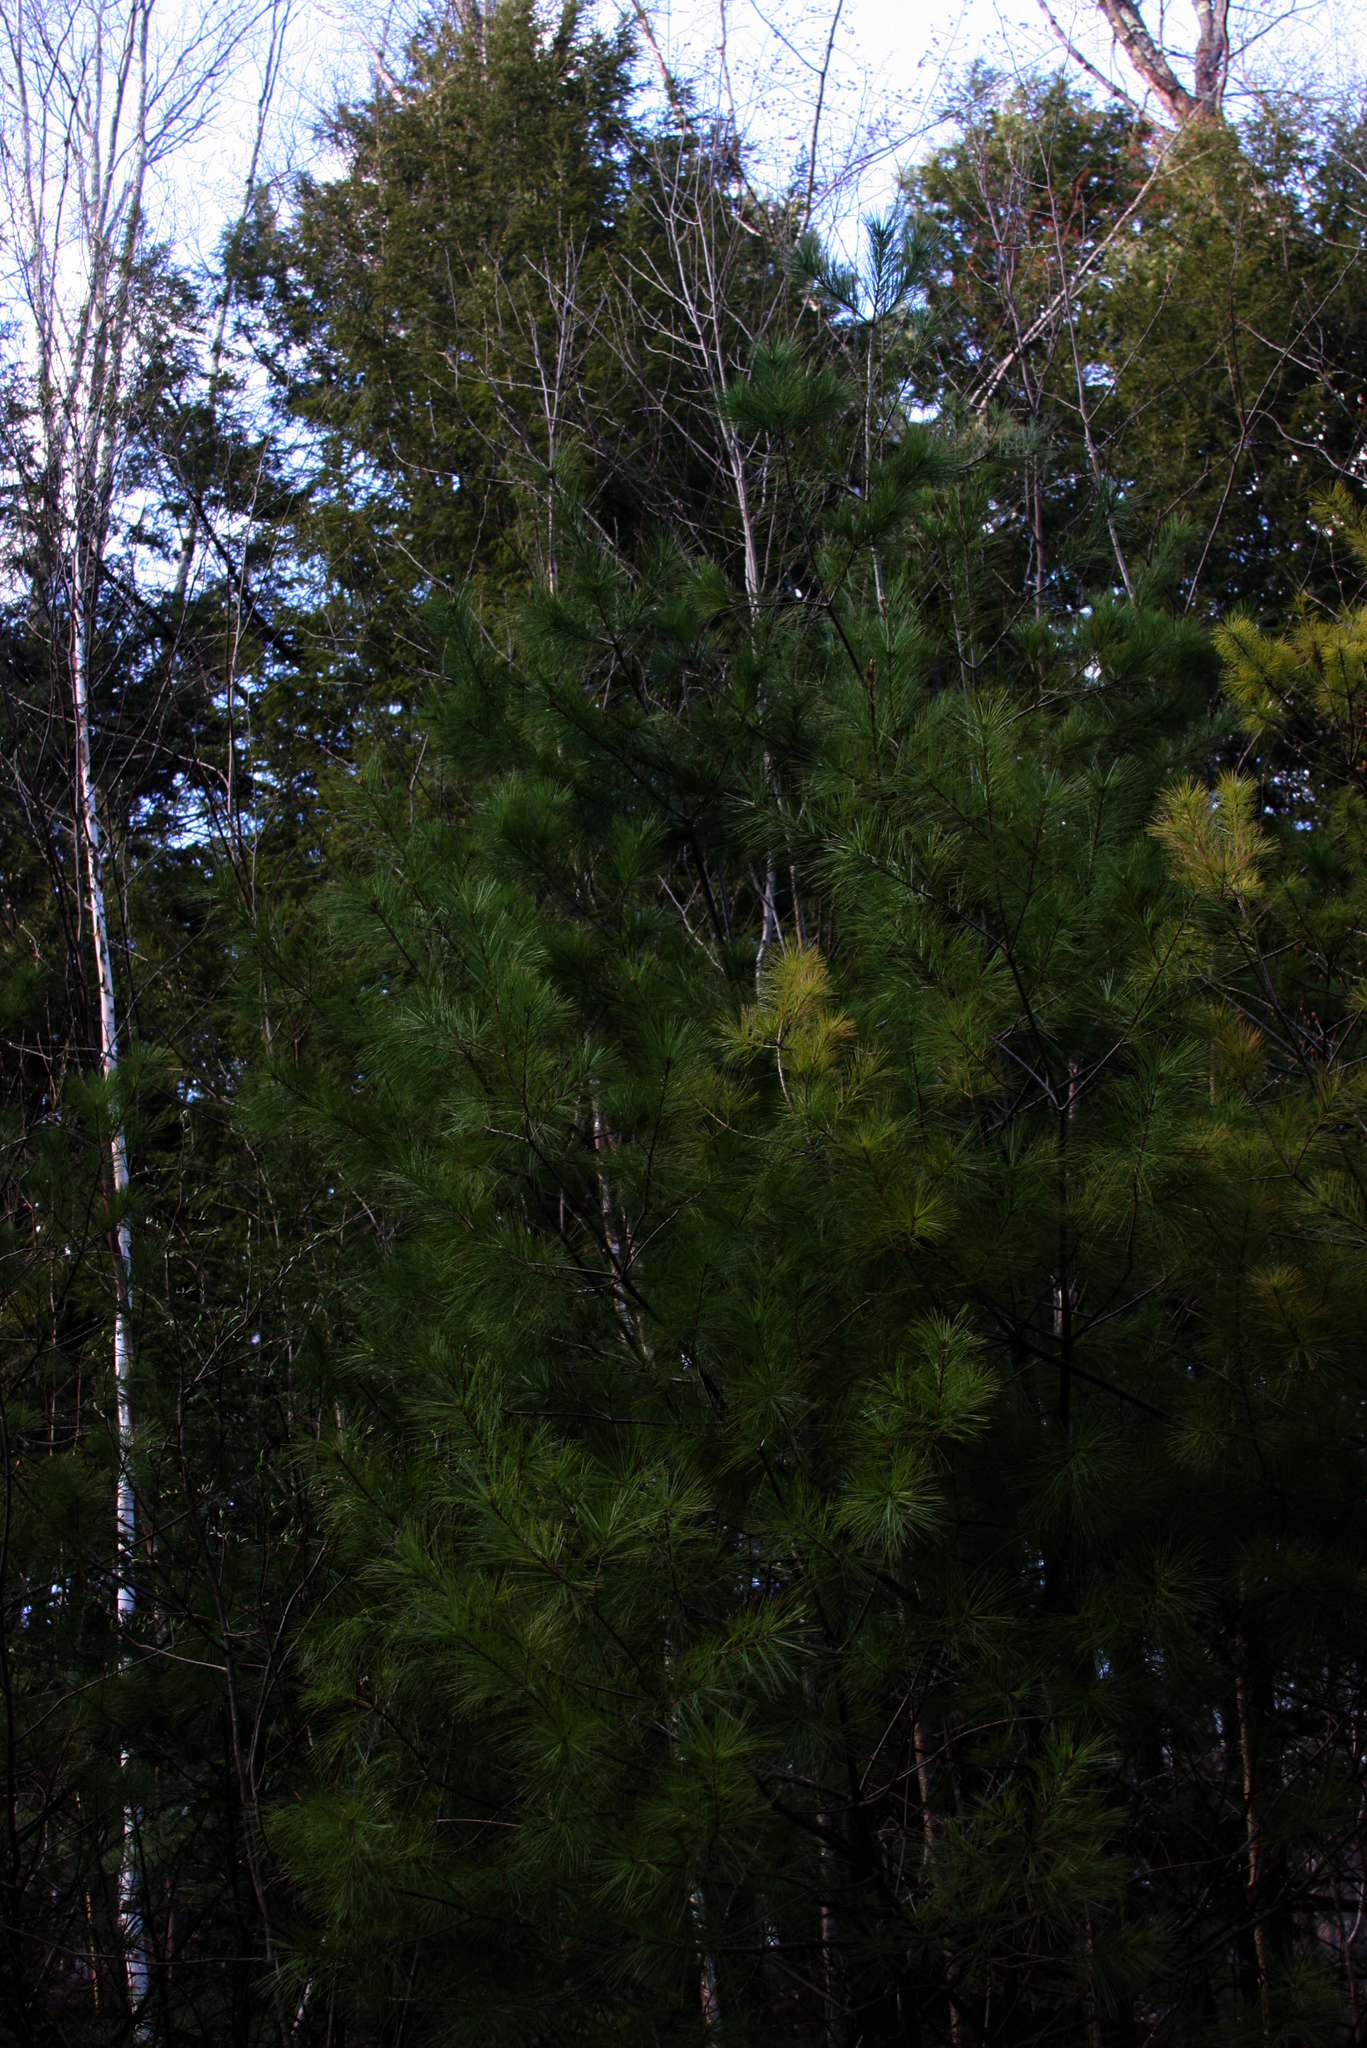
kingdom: Plantae
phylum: Tracheophyta
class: Pinopsida
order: Pinales
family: Pinaceae
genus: Pinus
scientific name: Pinus strobus
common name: Weymouth pine
